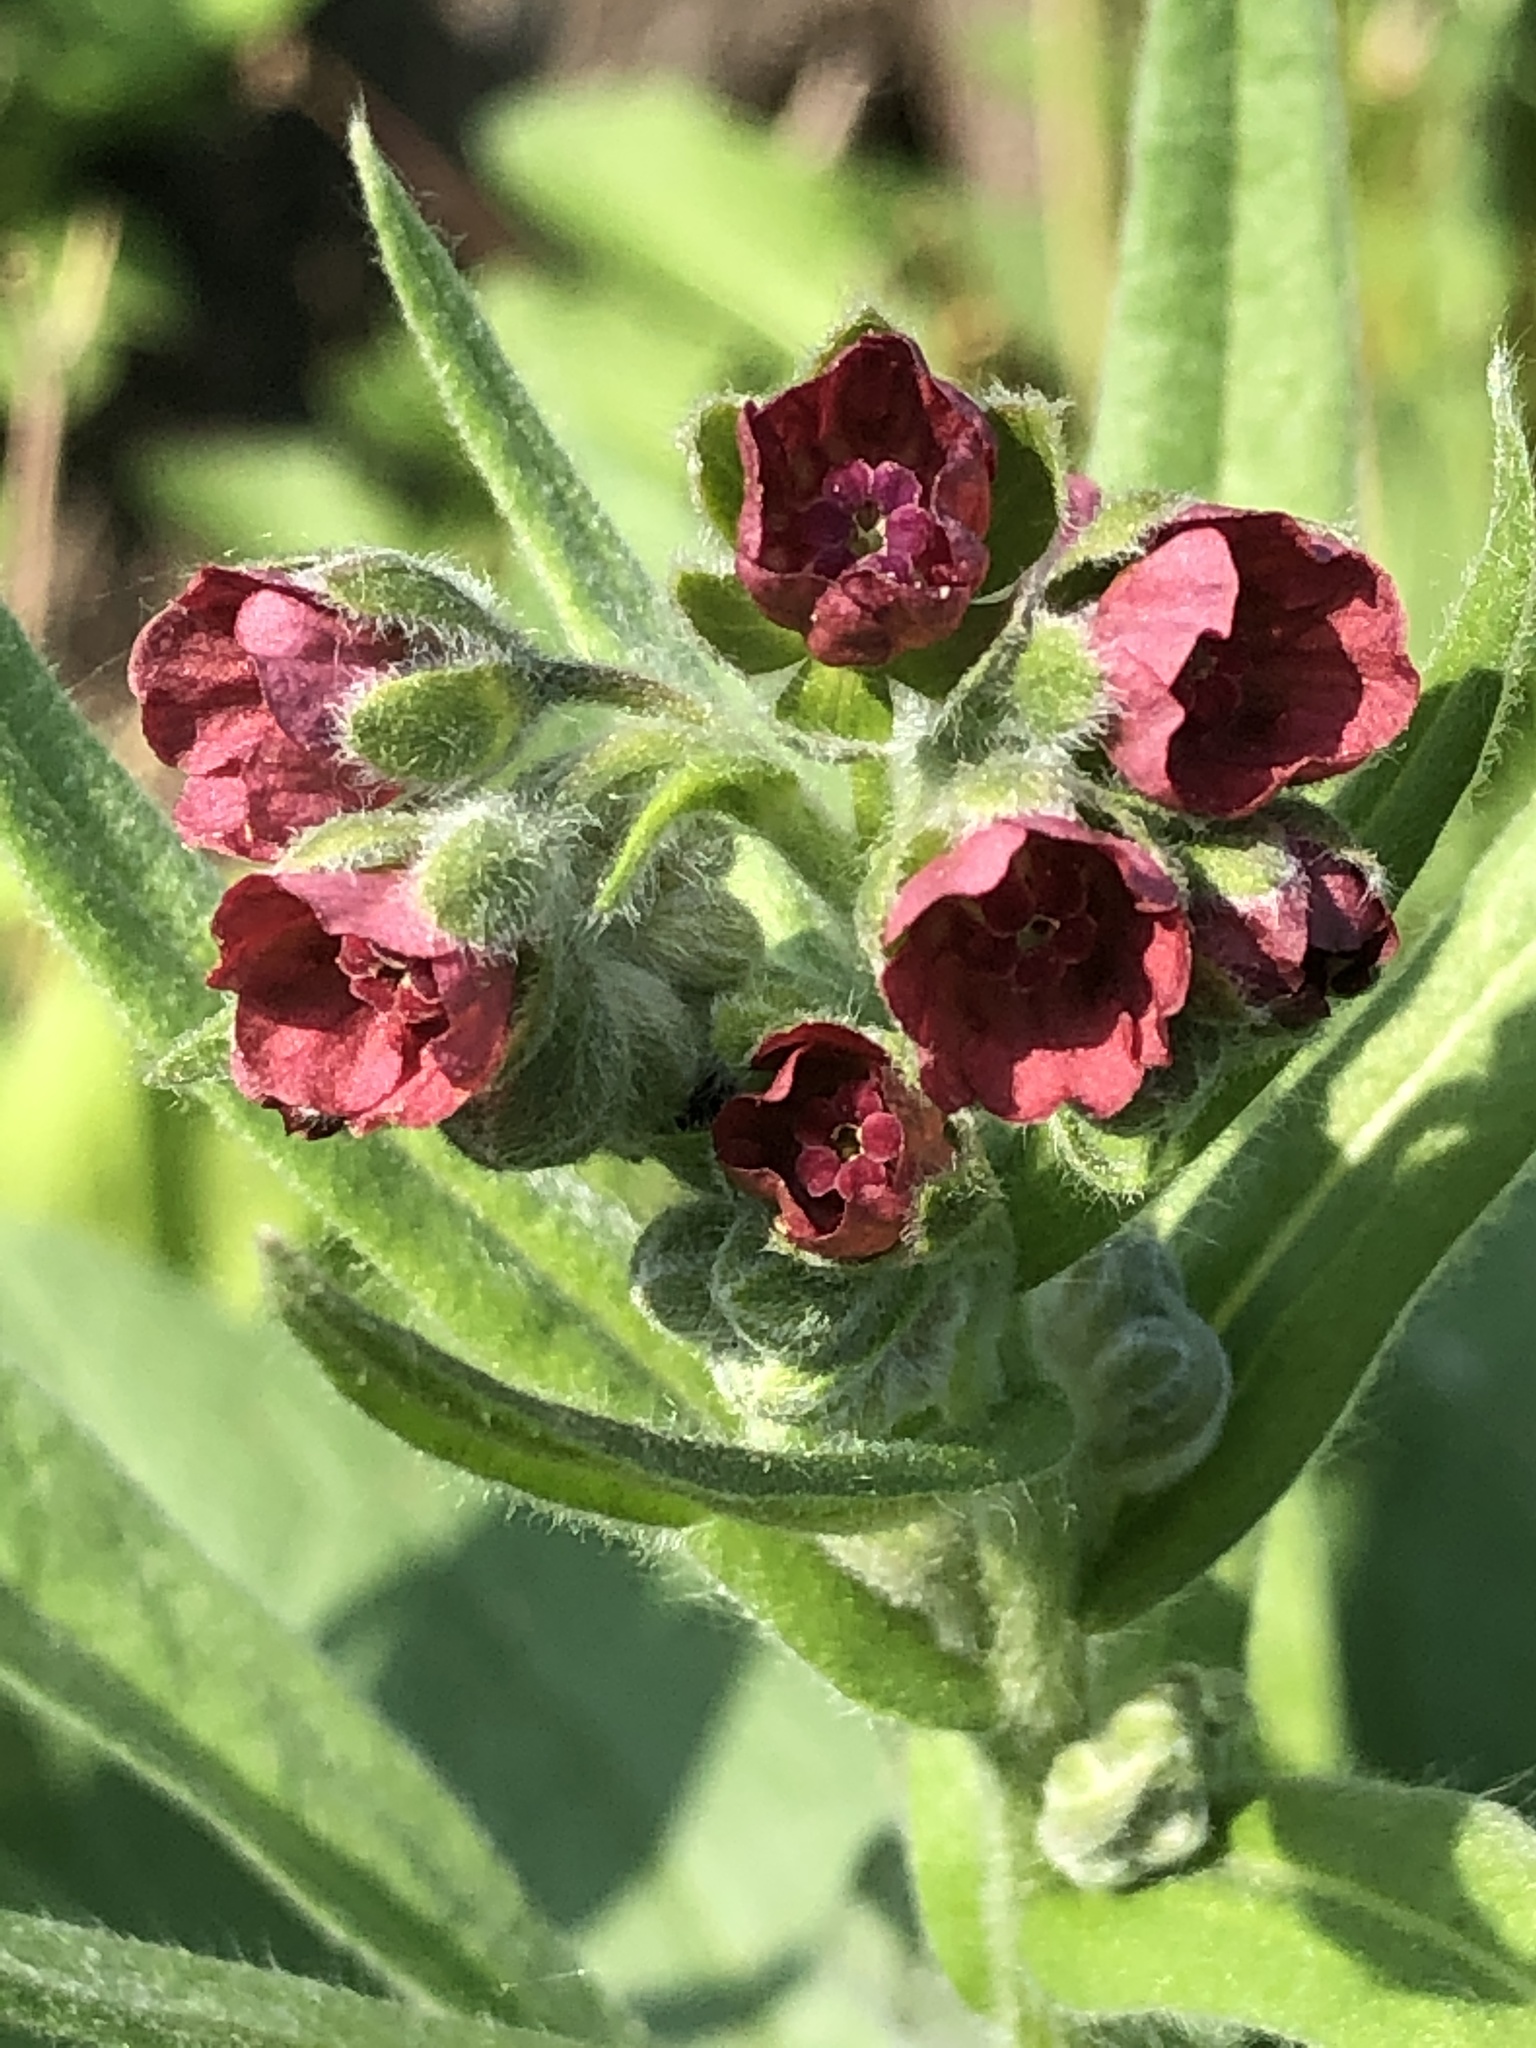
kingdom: Plantae
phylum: Tracheophyta
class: Magnoliopsida
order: Boraginales
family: Boraginaceae
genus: Cynoglossum
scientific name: Cynoglossum officinale
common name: Hound's-tongue
